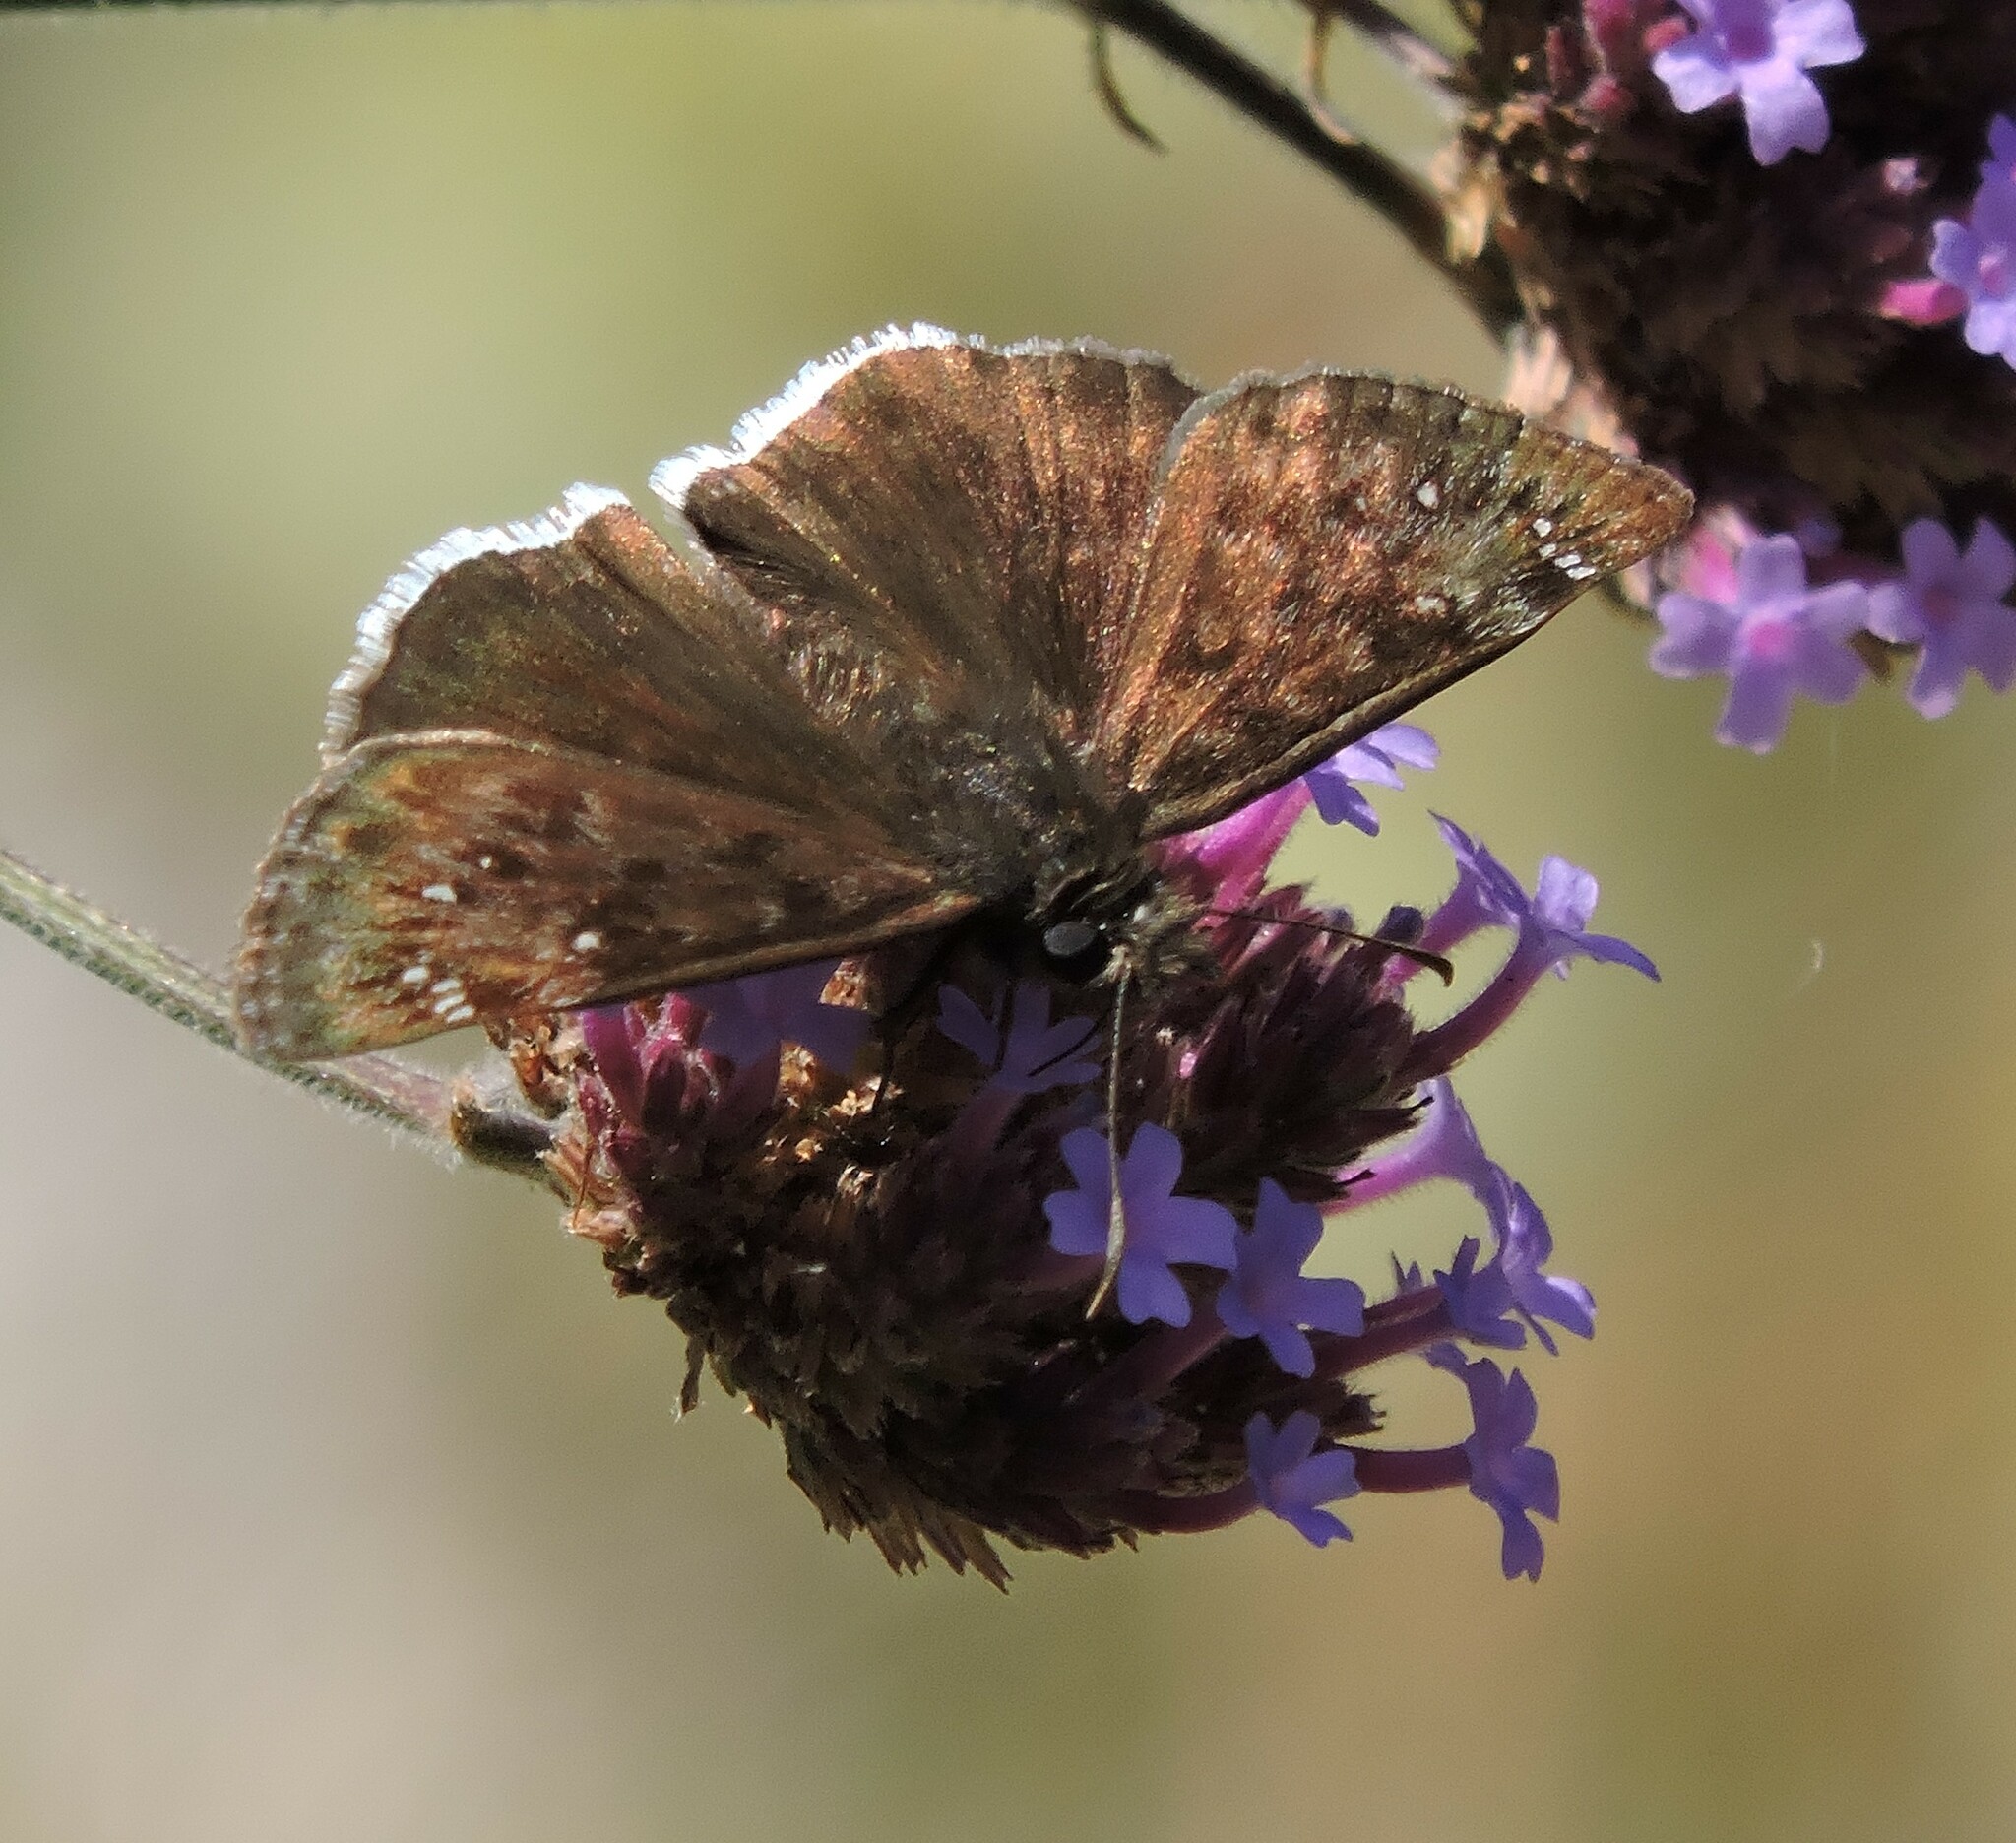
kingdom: Animalia
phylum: Arthropoda
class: Insecta
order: Lepidoptera
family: Hesperiidae
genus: Erynnis
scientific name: Erynnis tristis
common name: Mournful duskywing
